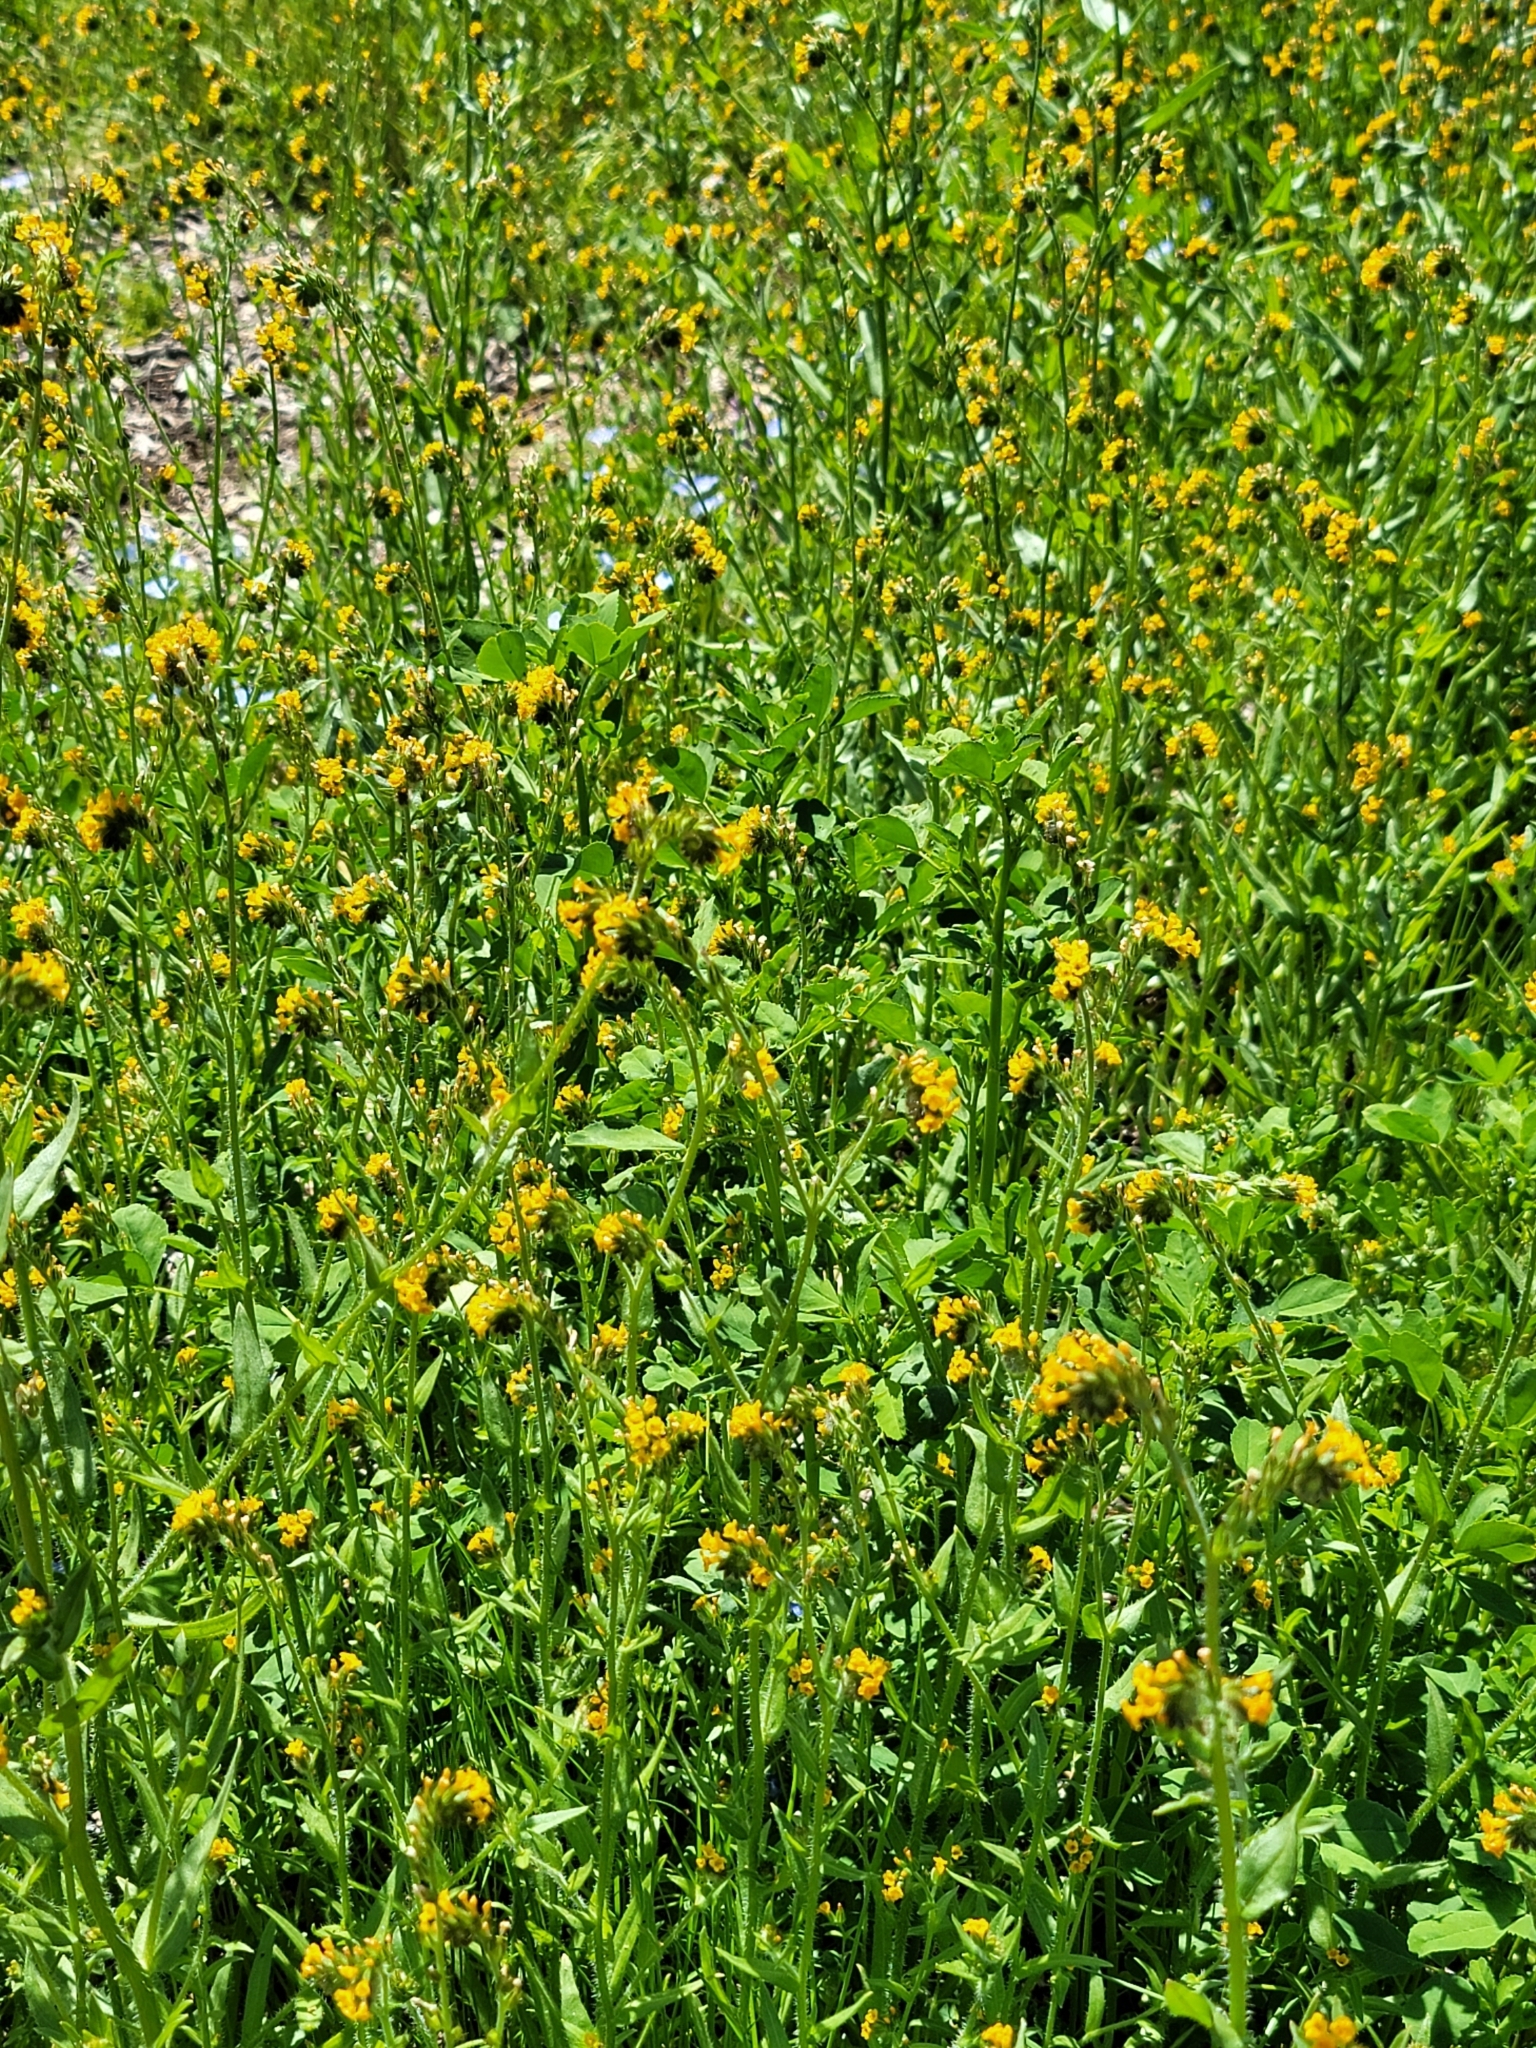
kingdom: Plantae
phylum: Tracheophyta
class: Magnoliopsida
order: Boraginales
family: Boraginaceae
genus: Amsinckia
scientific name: Amsinckia menziesii
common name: Menzies' fiddleneck
